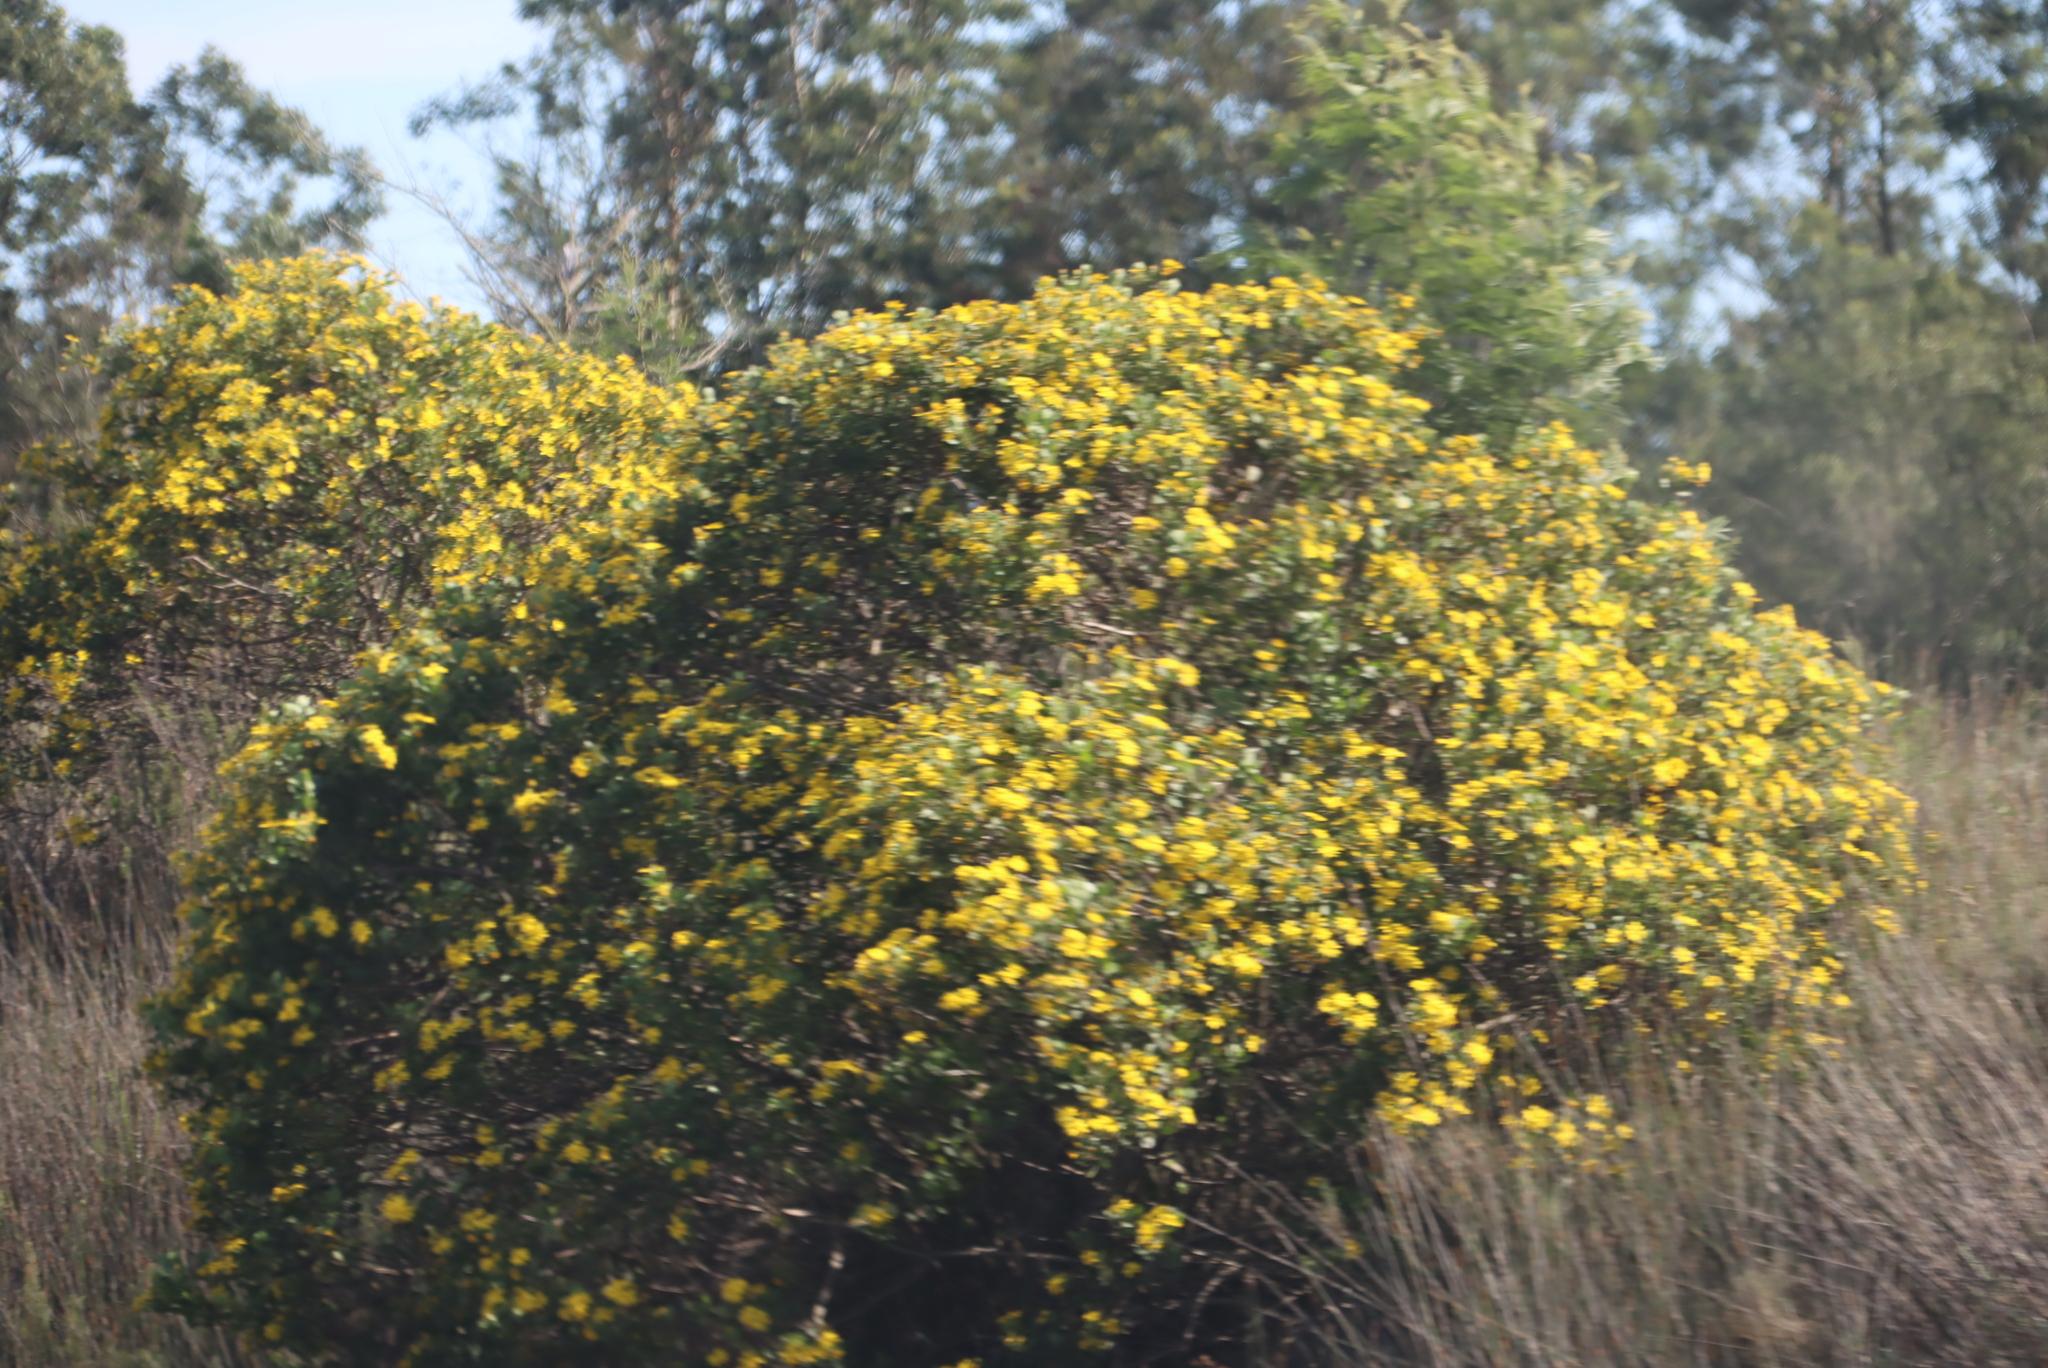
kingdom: Plantae
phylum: Tracheophyta
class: Magnoliopsida
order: Asterales
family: Asteraceae
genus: Osteospermum
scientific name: Osteospermum moniliferum
